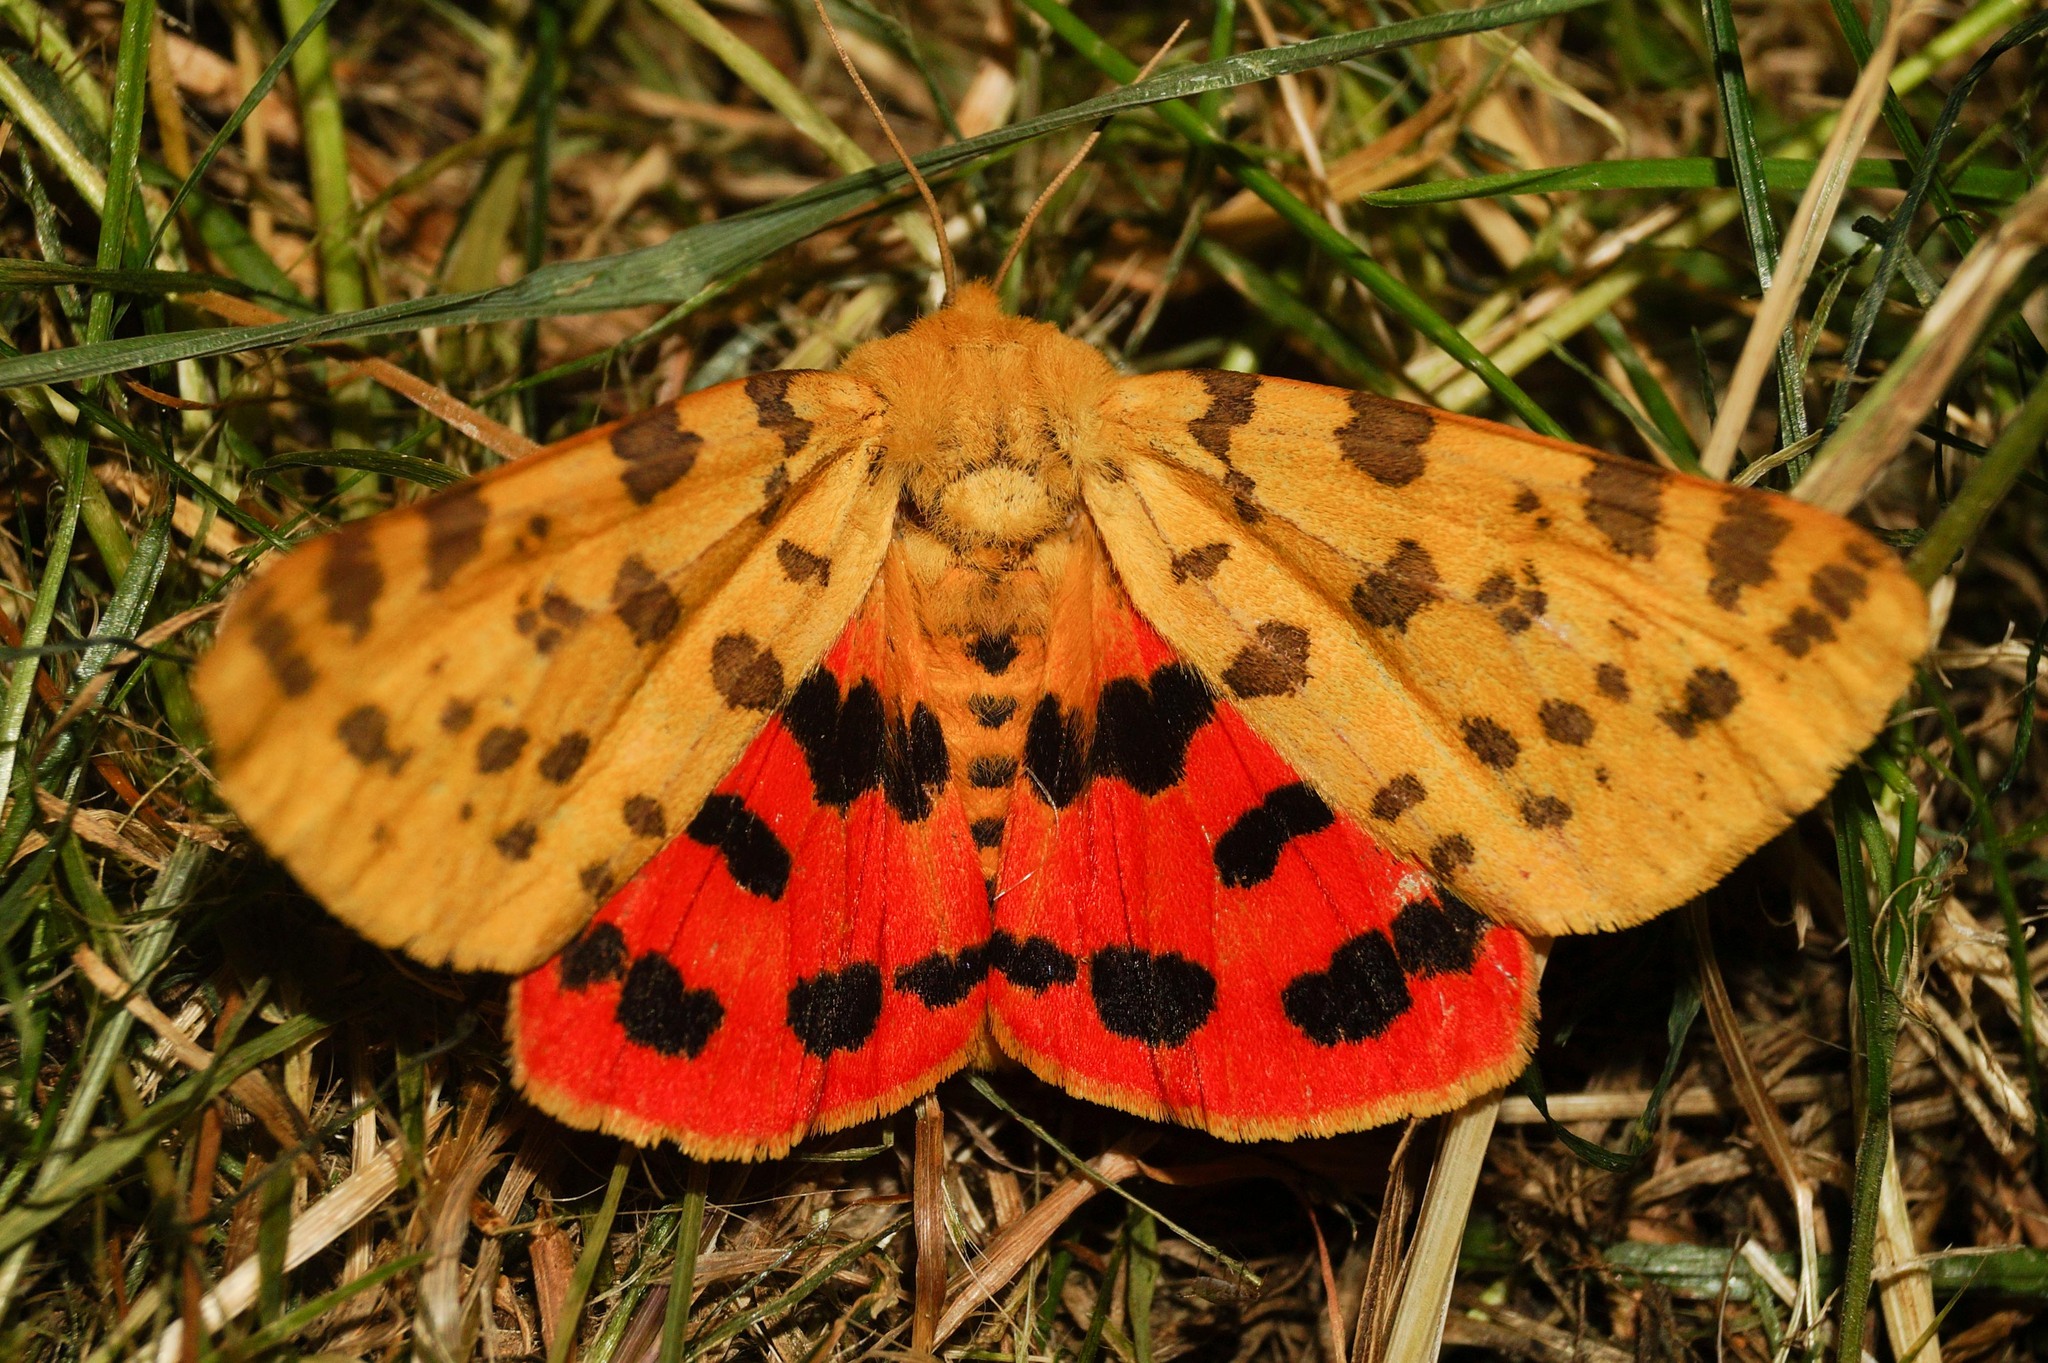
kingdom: Animalia
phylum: Arthropoda
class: Insecta
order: Lepidoptera
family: Erebidae
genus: Rhyparia
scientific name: Rhyparia purpurata
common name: Purple tiger
